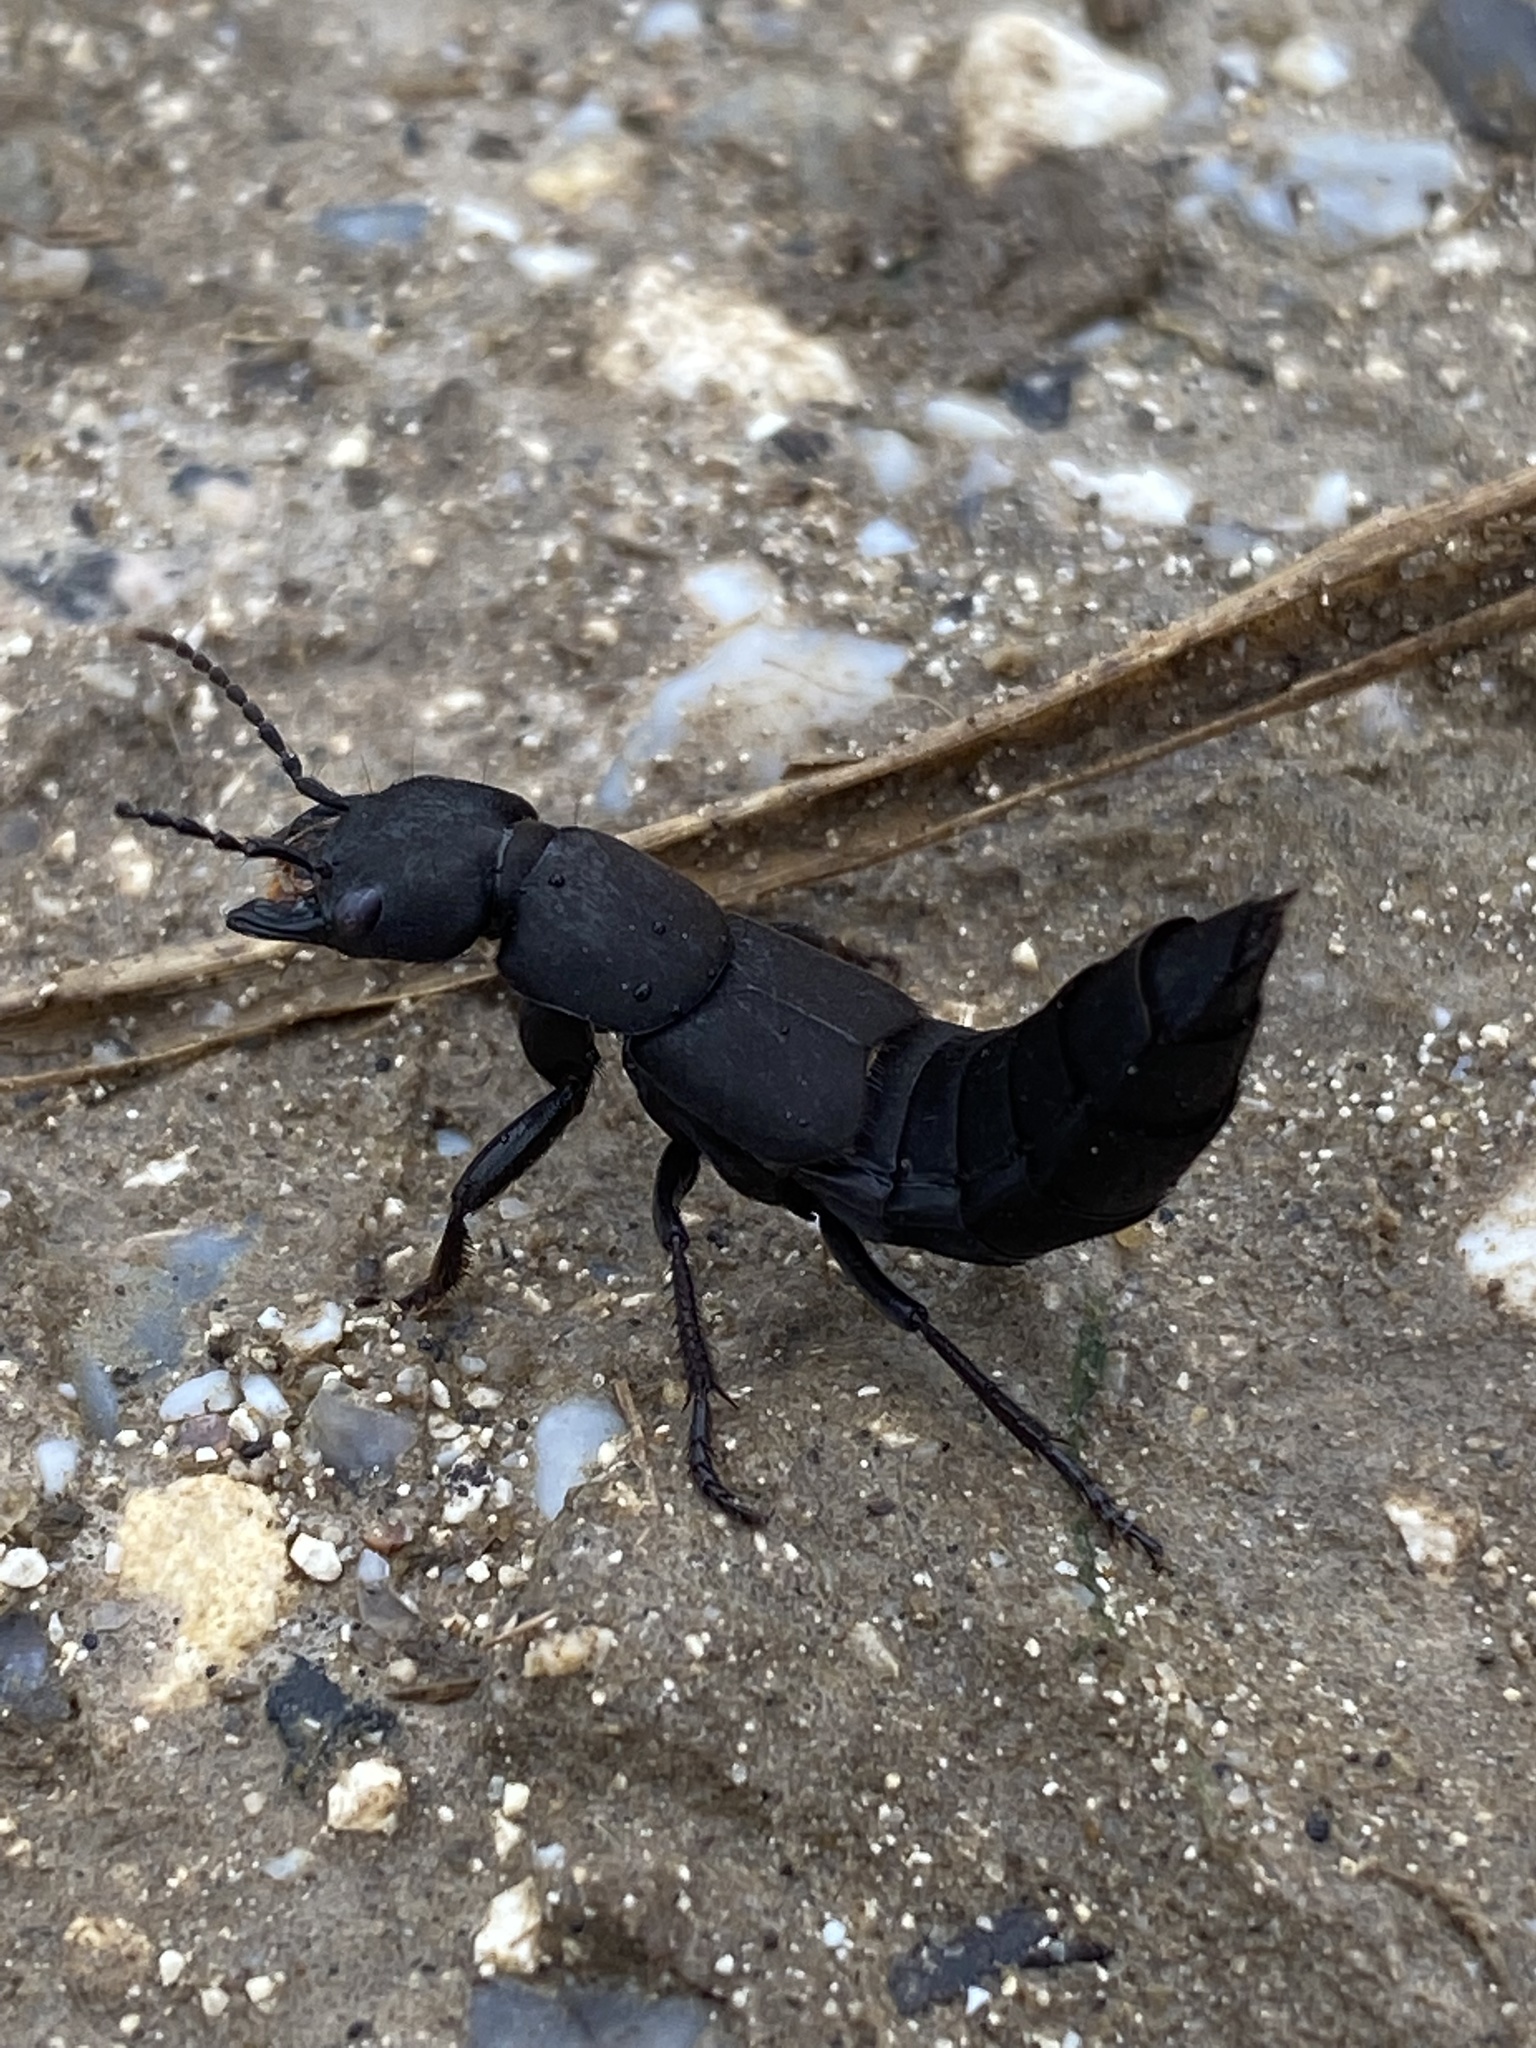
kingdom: Animalia
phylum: Arthropoda
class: Insecta
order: Coleoptera
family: Staphylinidae
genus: Ocypus
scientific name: Ocypus olens
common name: Devil's coach-horse
